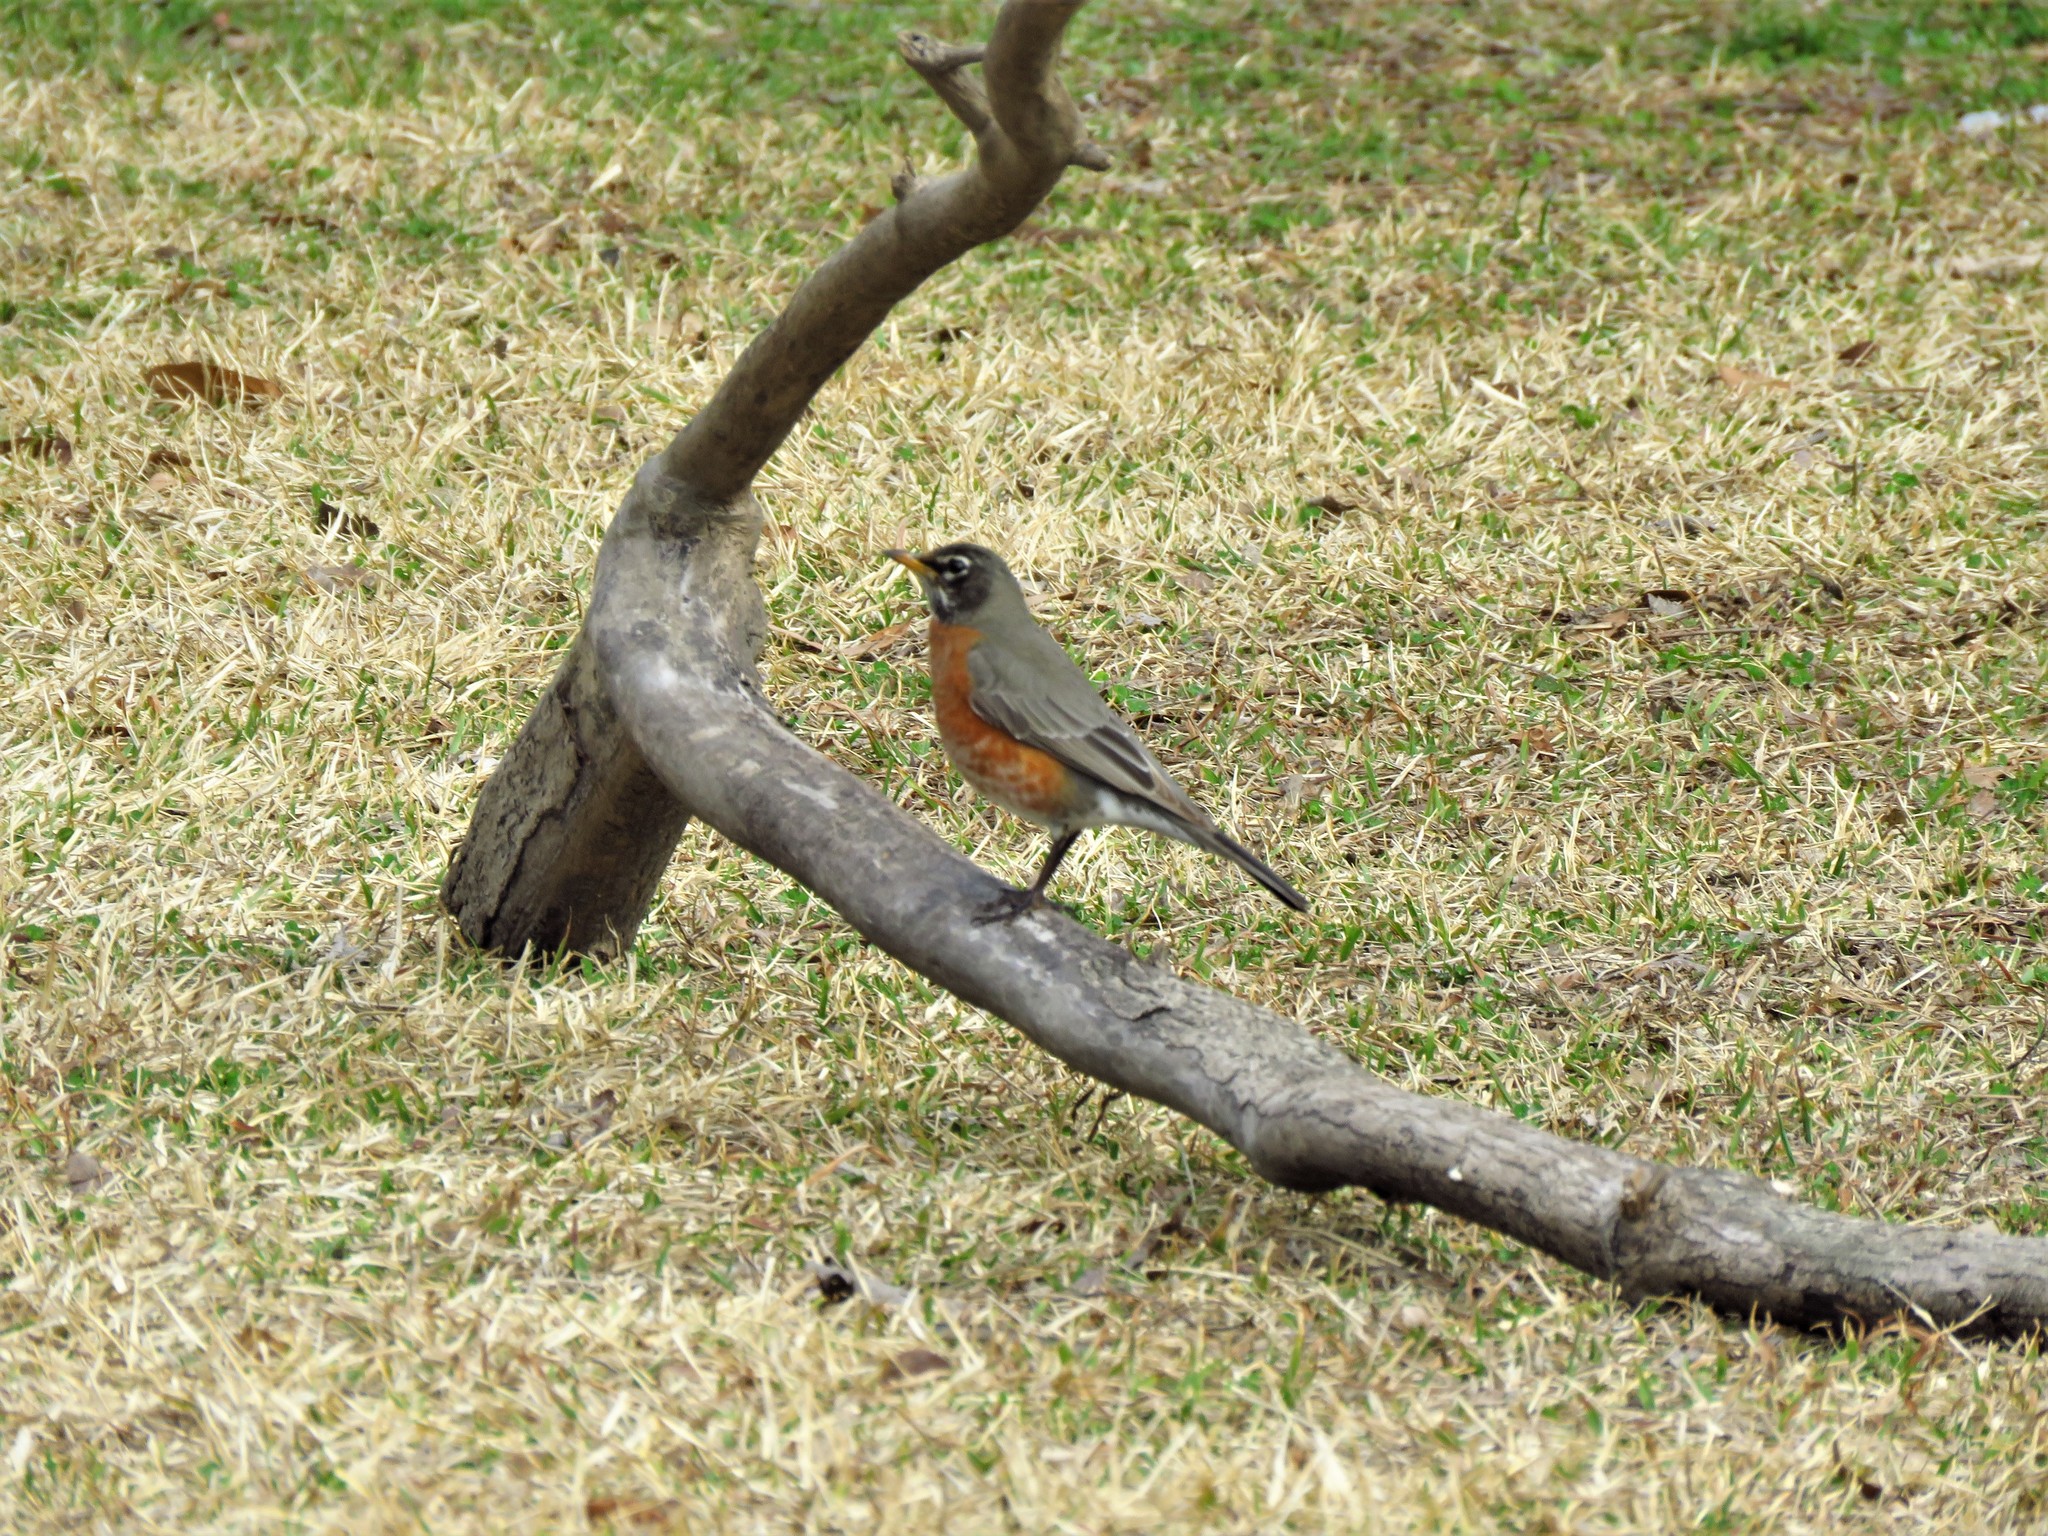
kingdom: Animalia
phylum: Chordata
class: Aves
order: Passeriformes
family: Turdidae
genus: Turdus
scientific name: Turdus migratorius
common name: American robin
